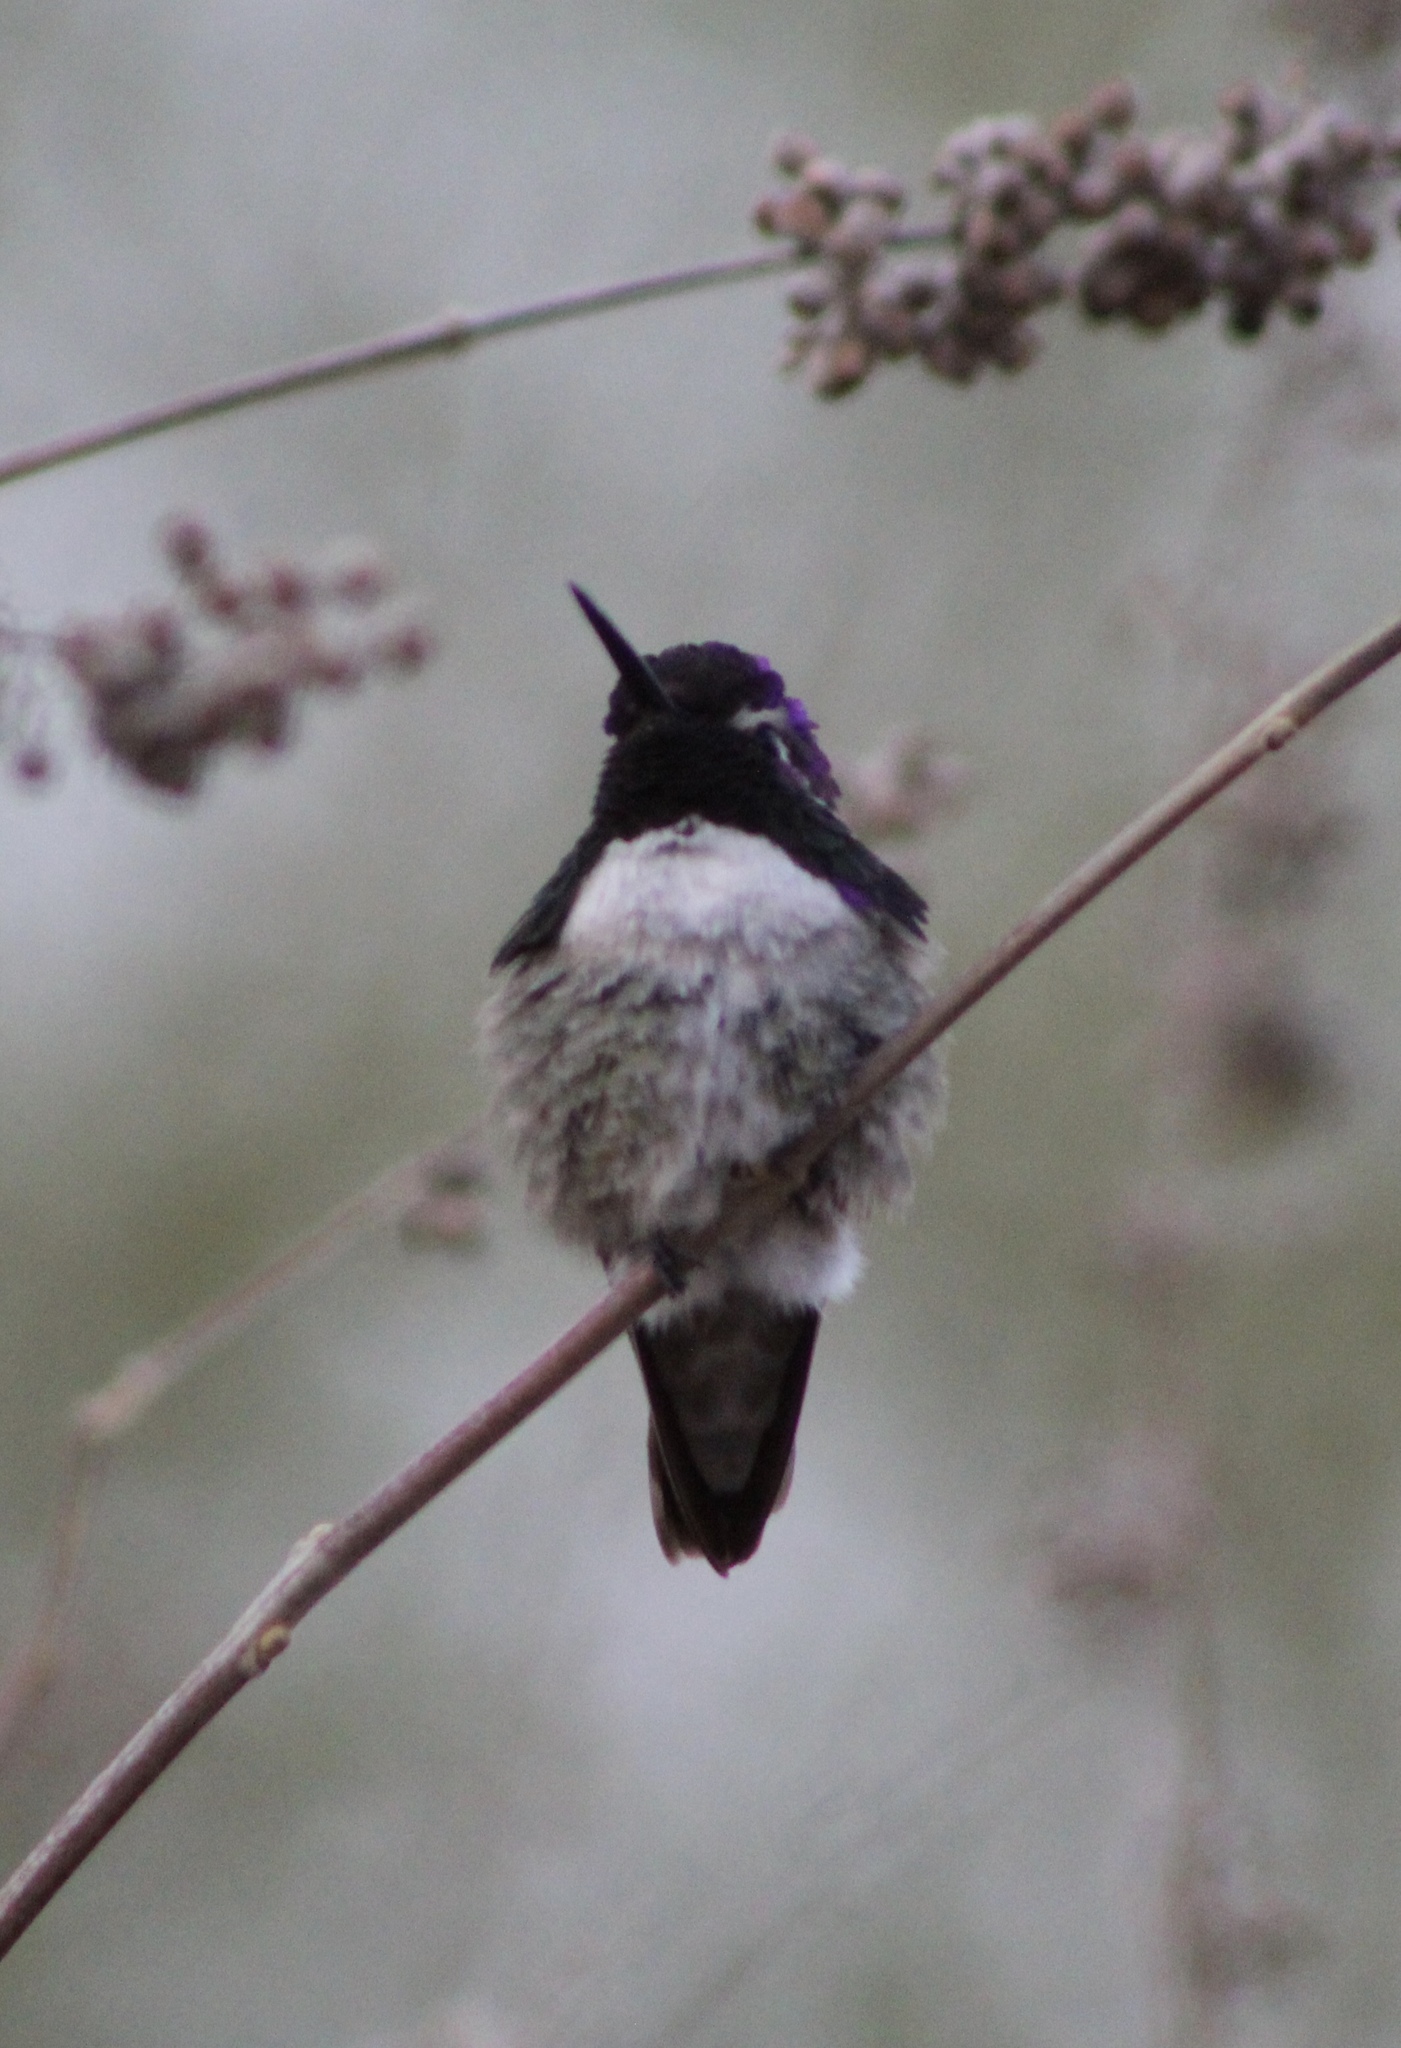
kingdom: Animalia
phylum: Chordata
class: Aves
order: Apodiformes
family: Trochilidae
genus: Calypte
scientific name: Calypte costae
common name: Costa's hummingbird
